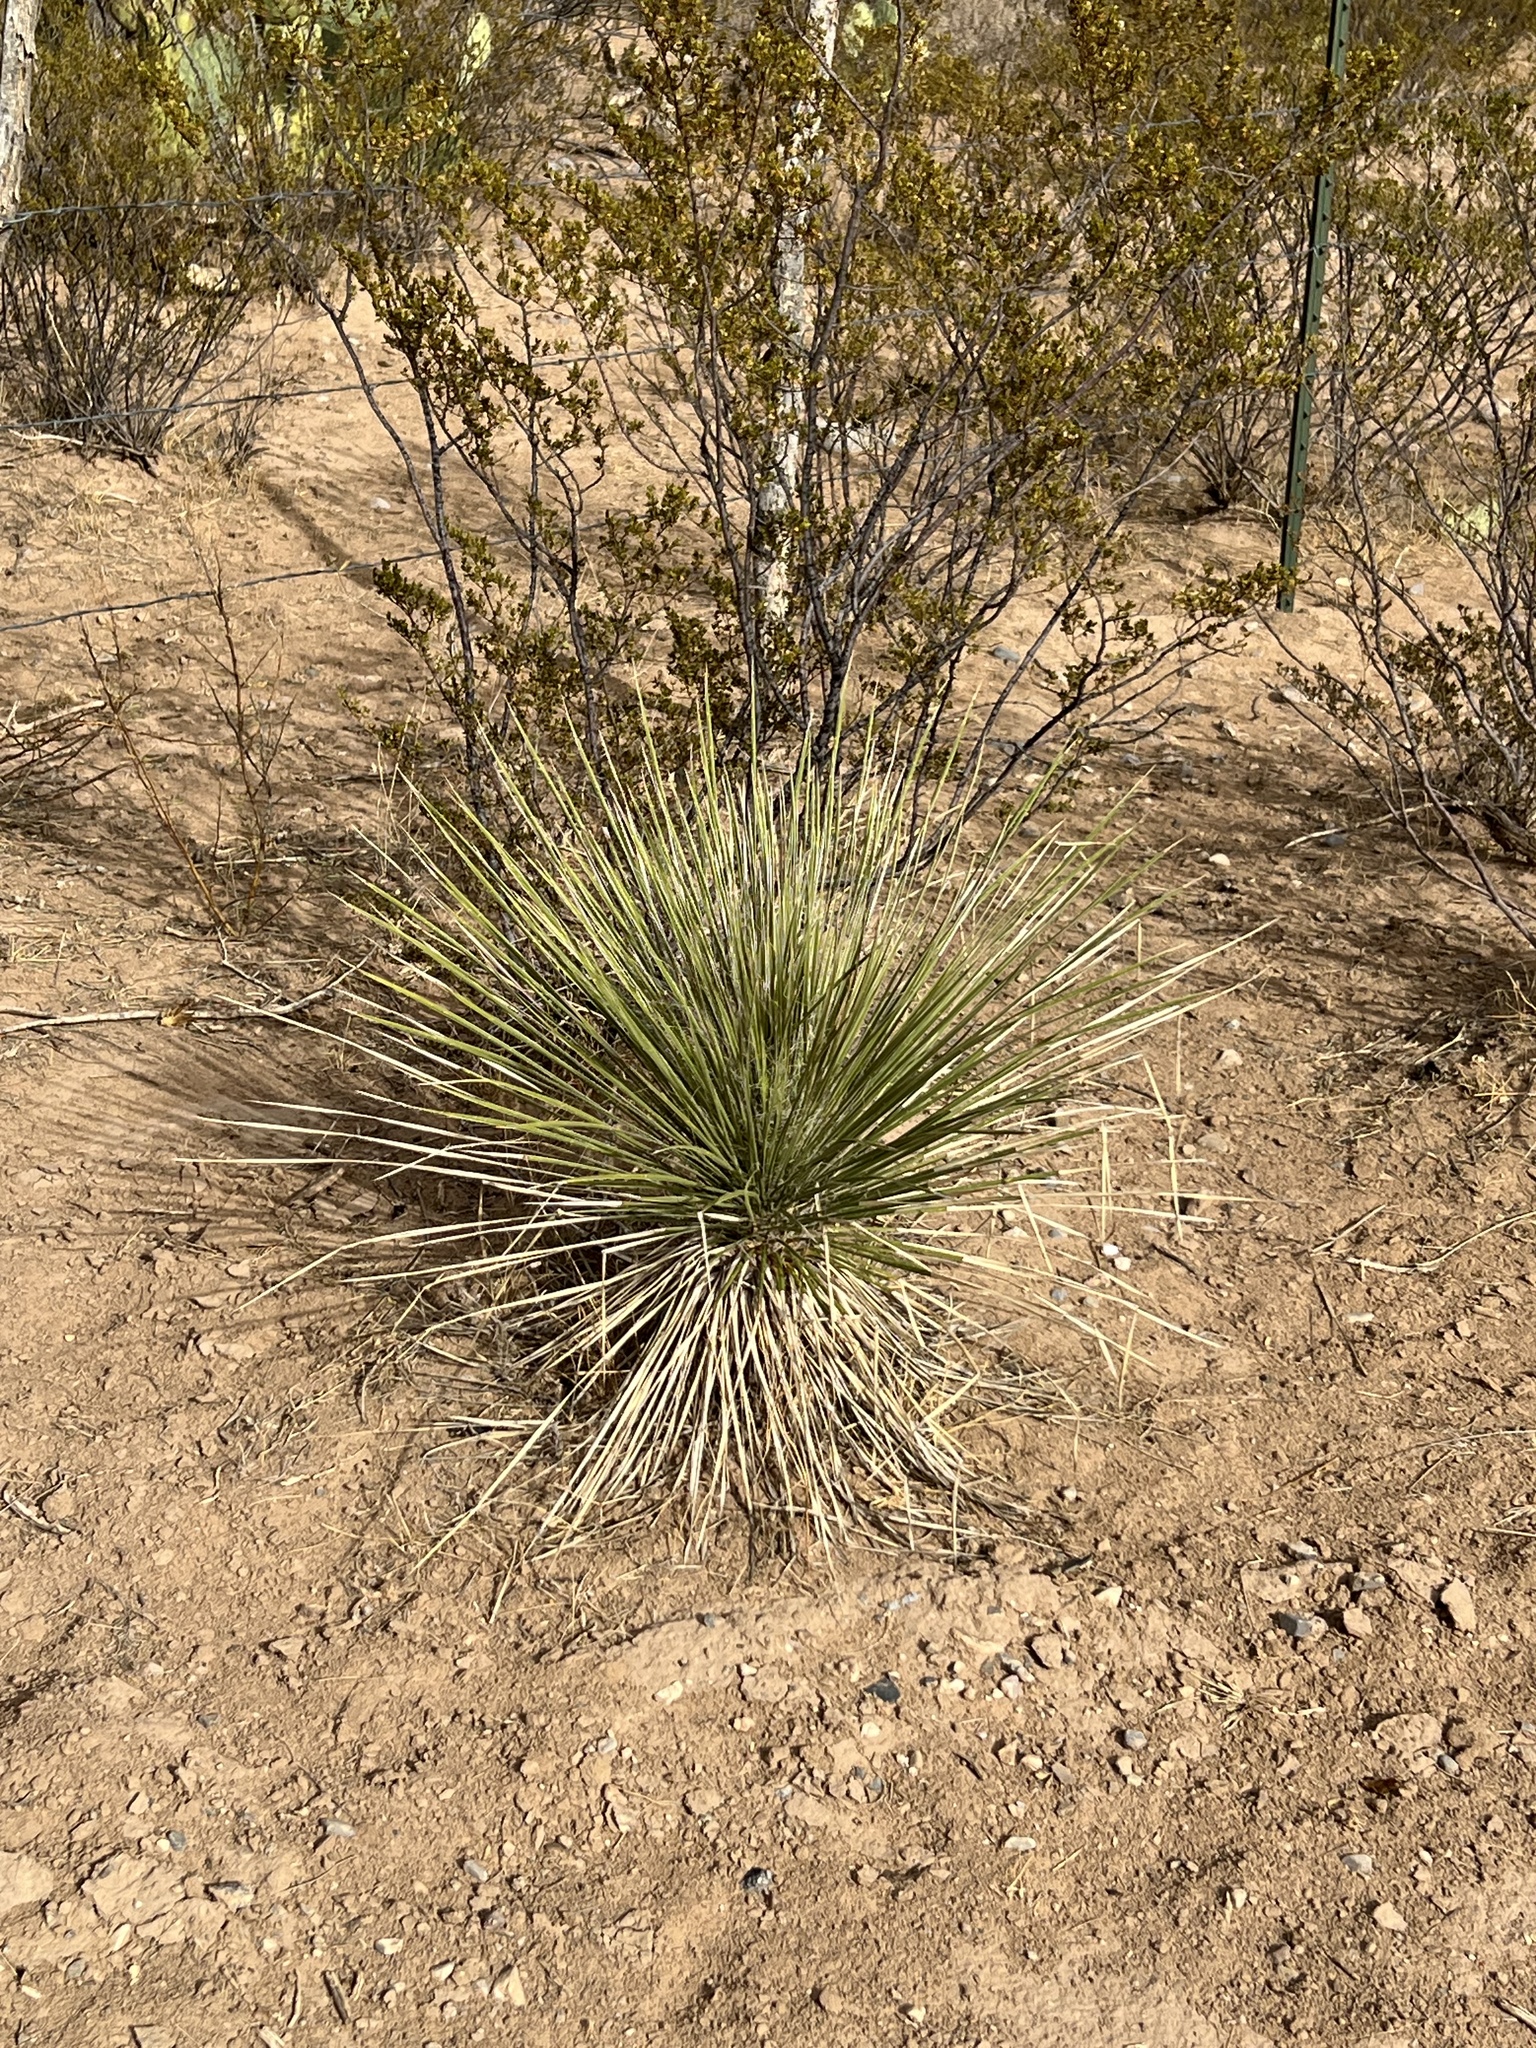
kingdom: Plantae
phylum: Tracheophyta
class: Liliopsida
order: Asparagales
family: Asparagaceae
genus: Yucca
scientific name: Yucca elata
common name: Palmella
